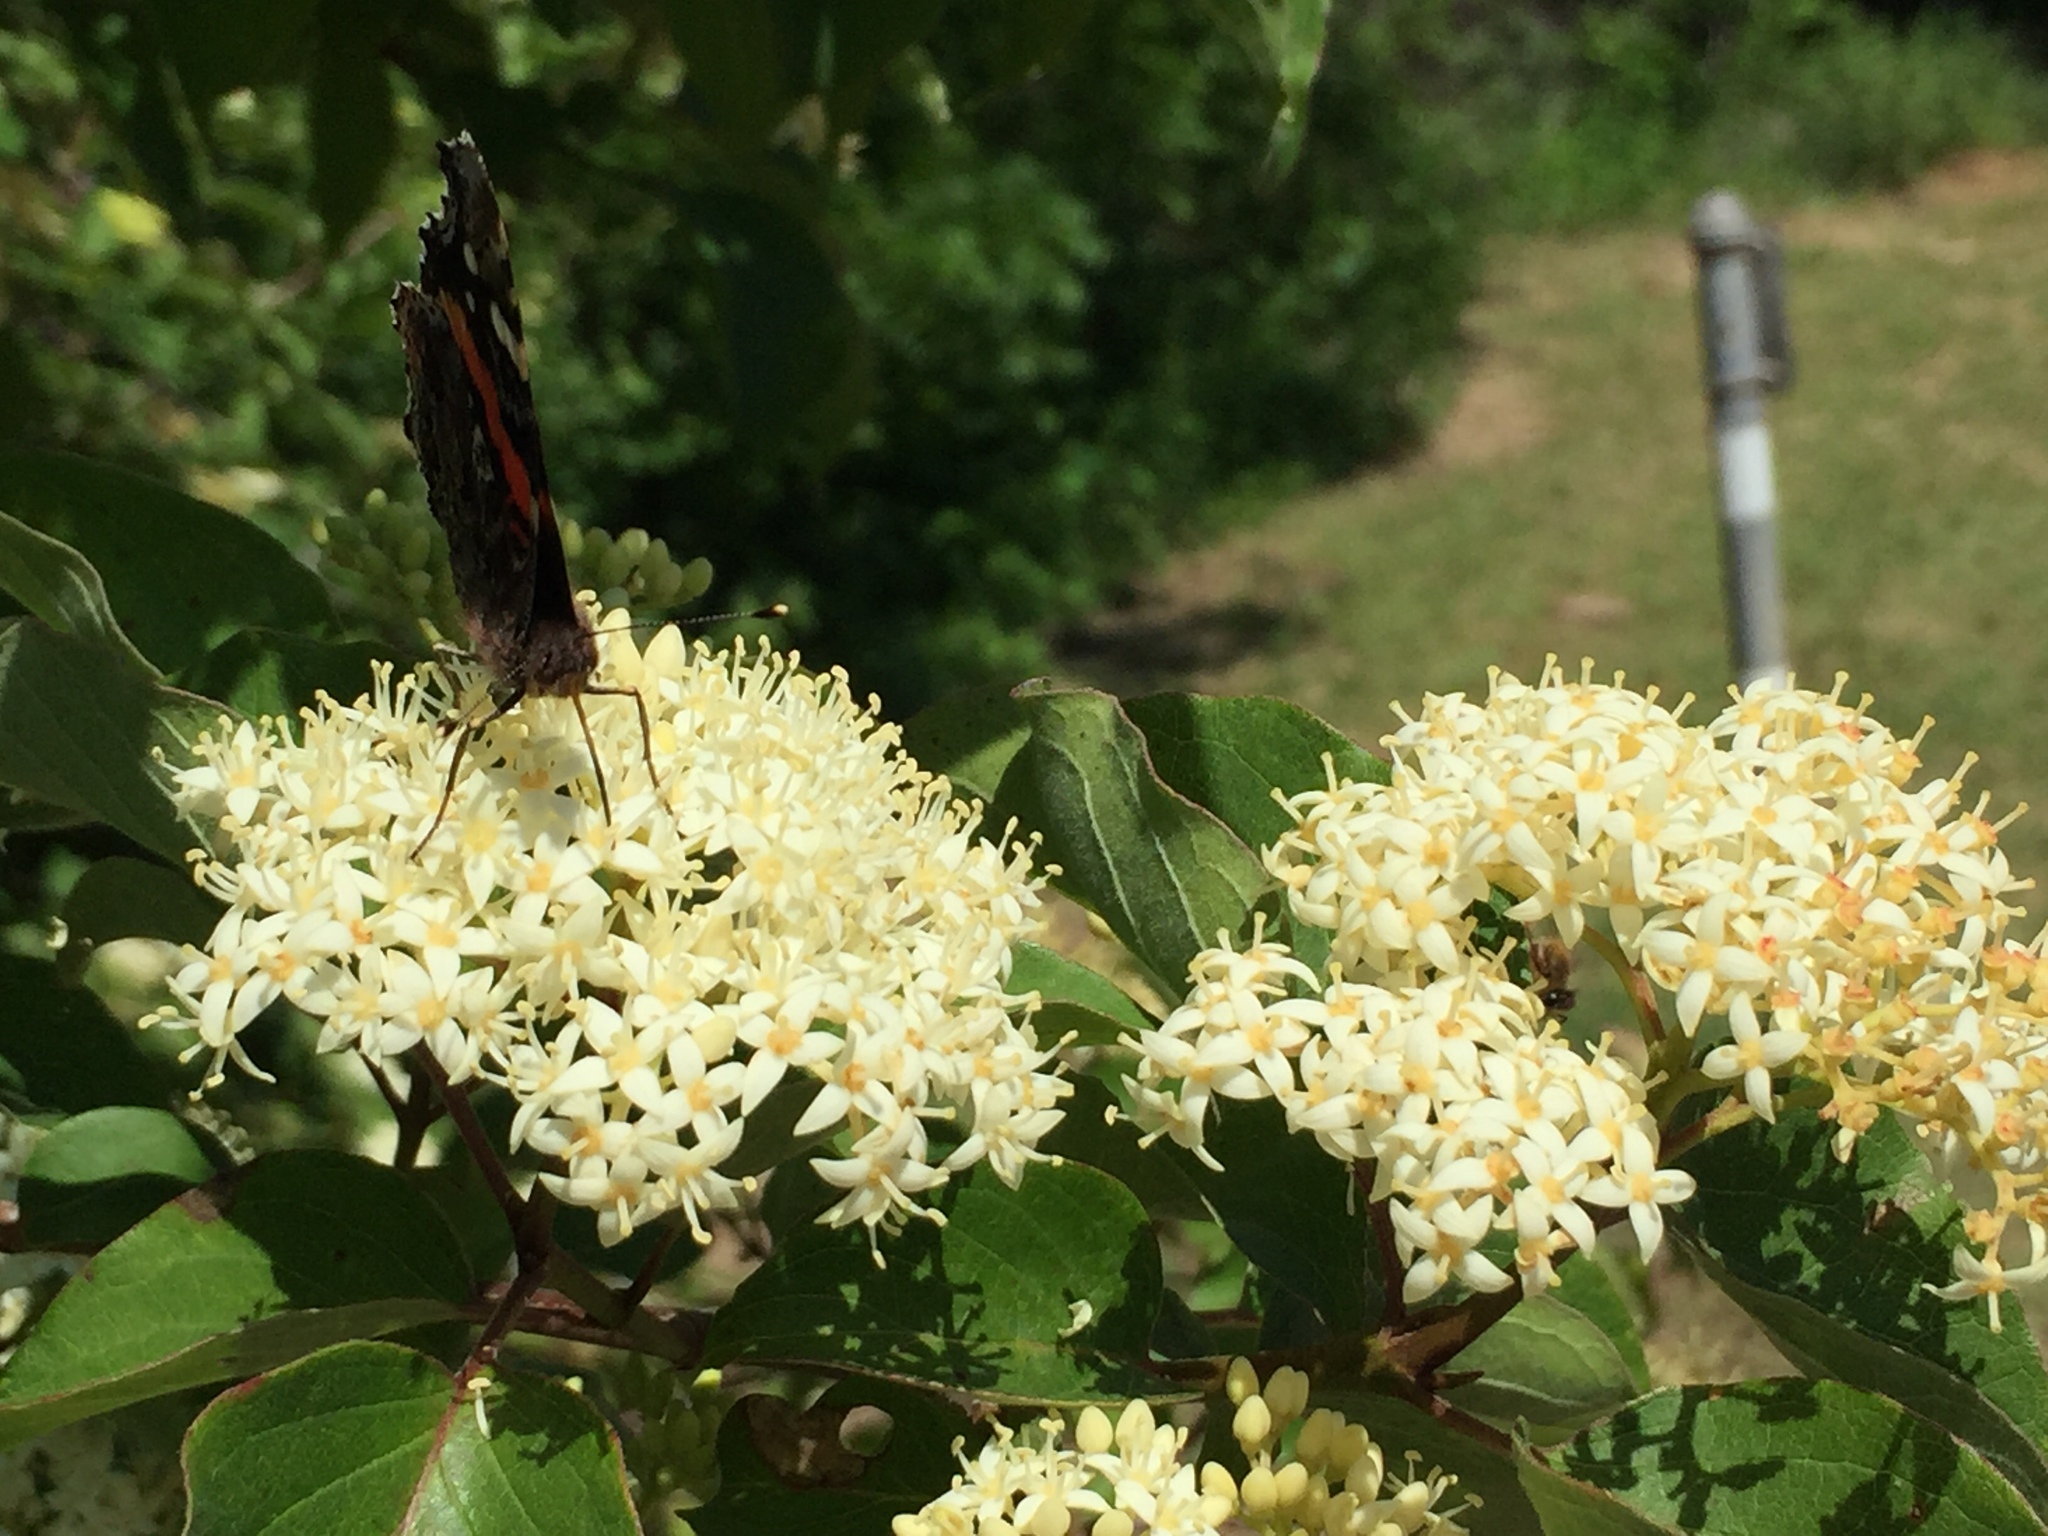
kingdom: Plantae
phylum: Tracheophyta
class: Magnoliopsida
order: Cornales
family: Cornaceae
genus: Cornus
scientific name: Cornus drummondii
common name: Rough-leaf dogwood
